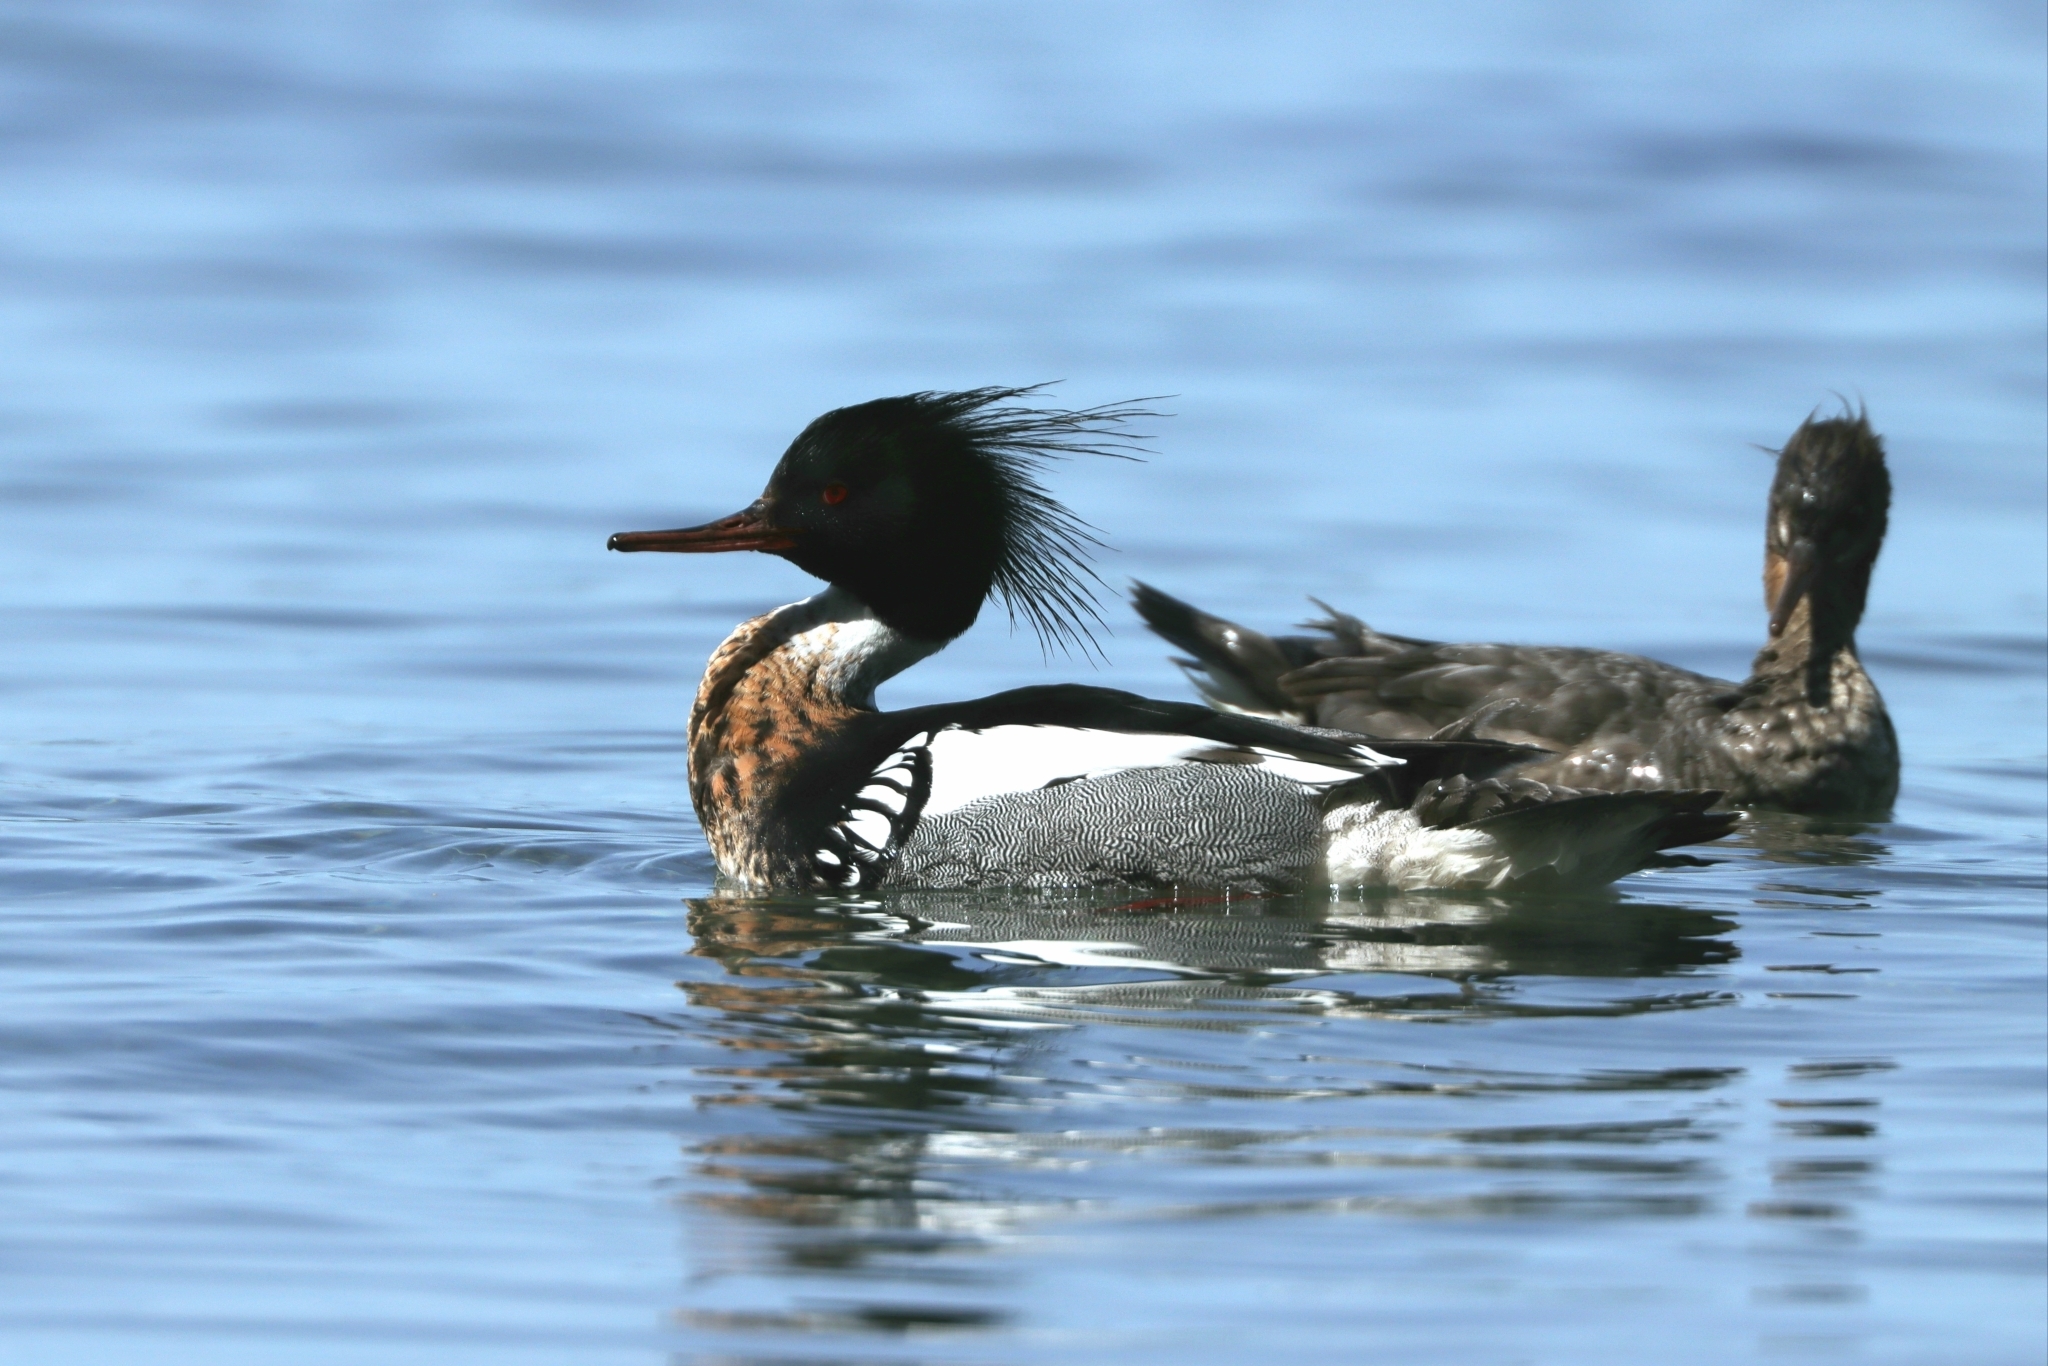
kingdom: Animalia
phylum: Chordata
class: Aves
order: Anseriformes
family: Anatidae
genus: Mergus
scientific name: Mergus serrator
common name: Red-breasted merganser
